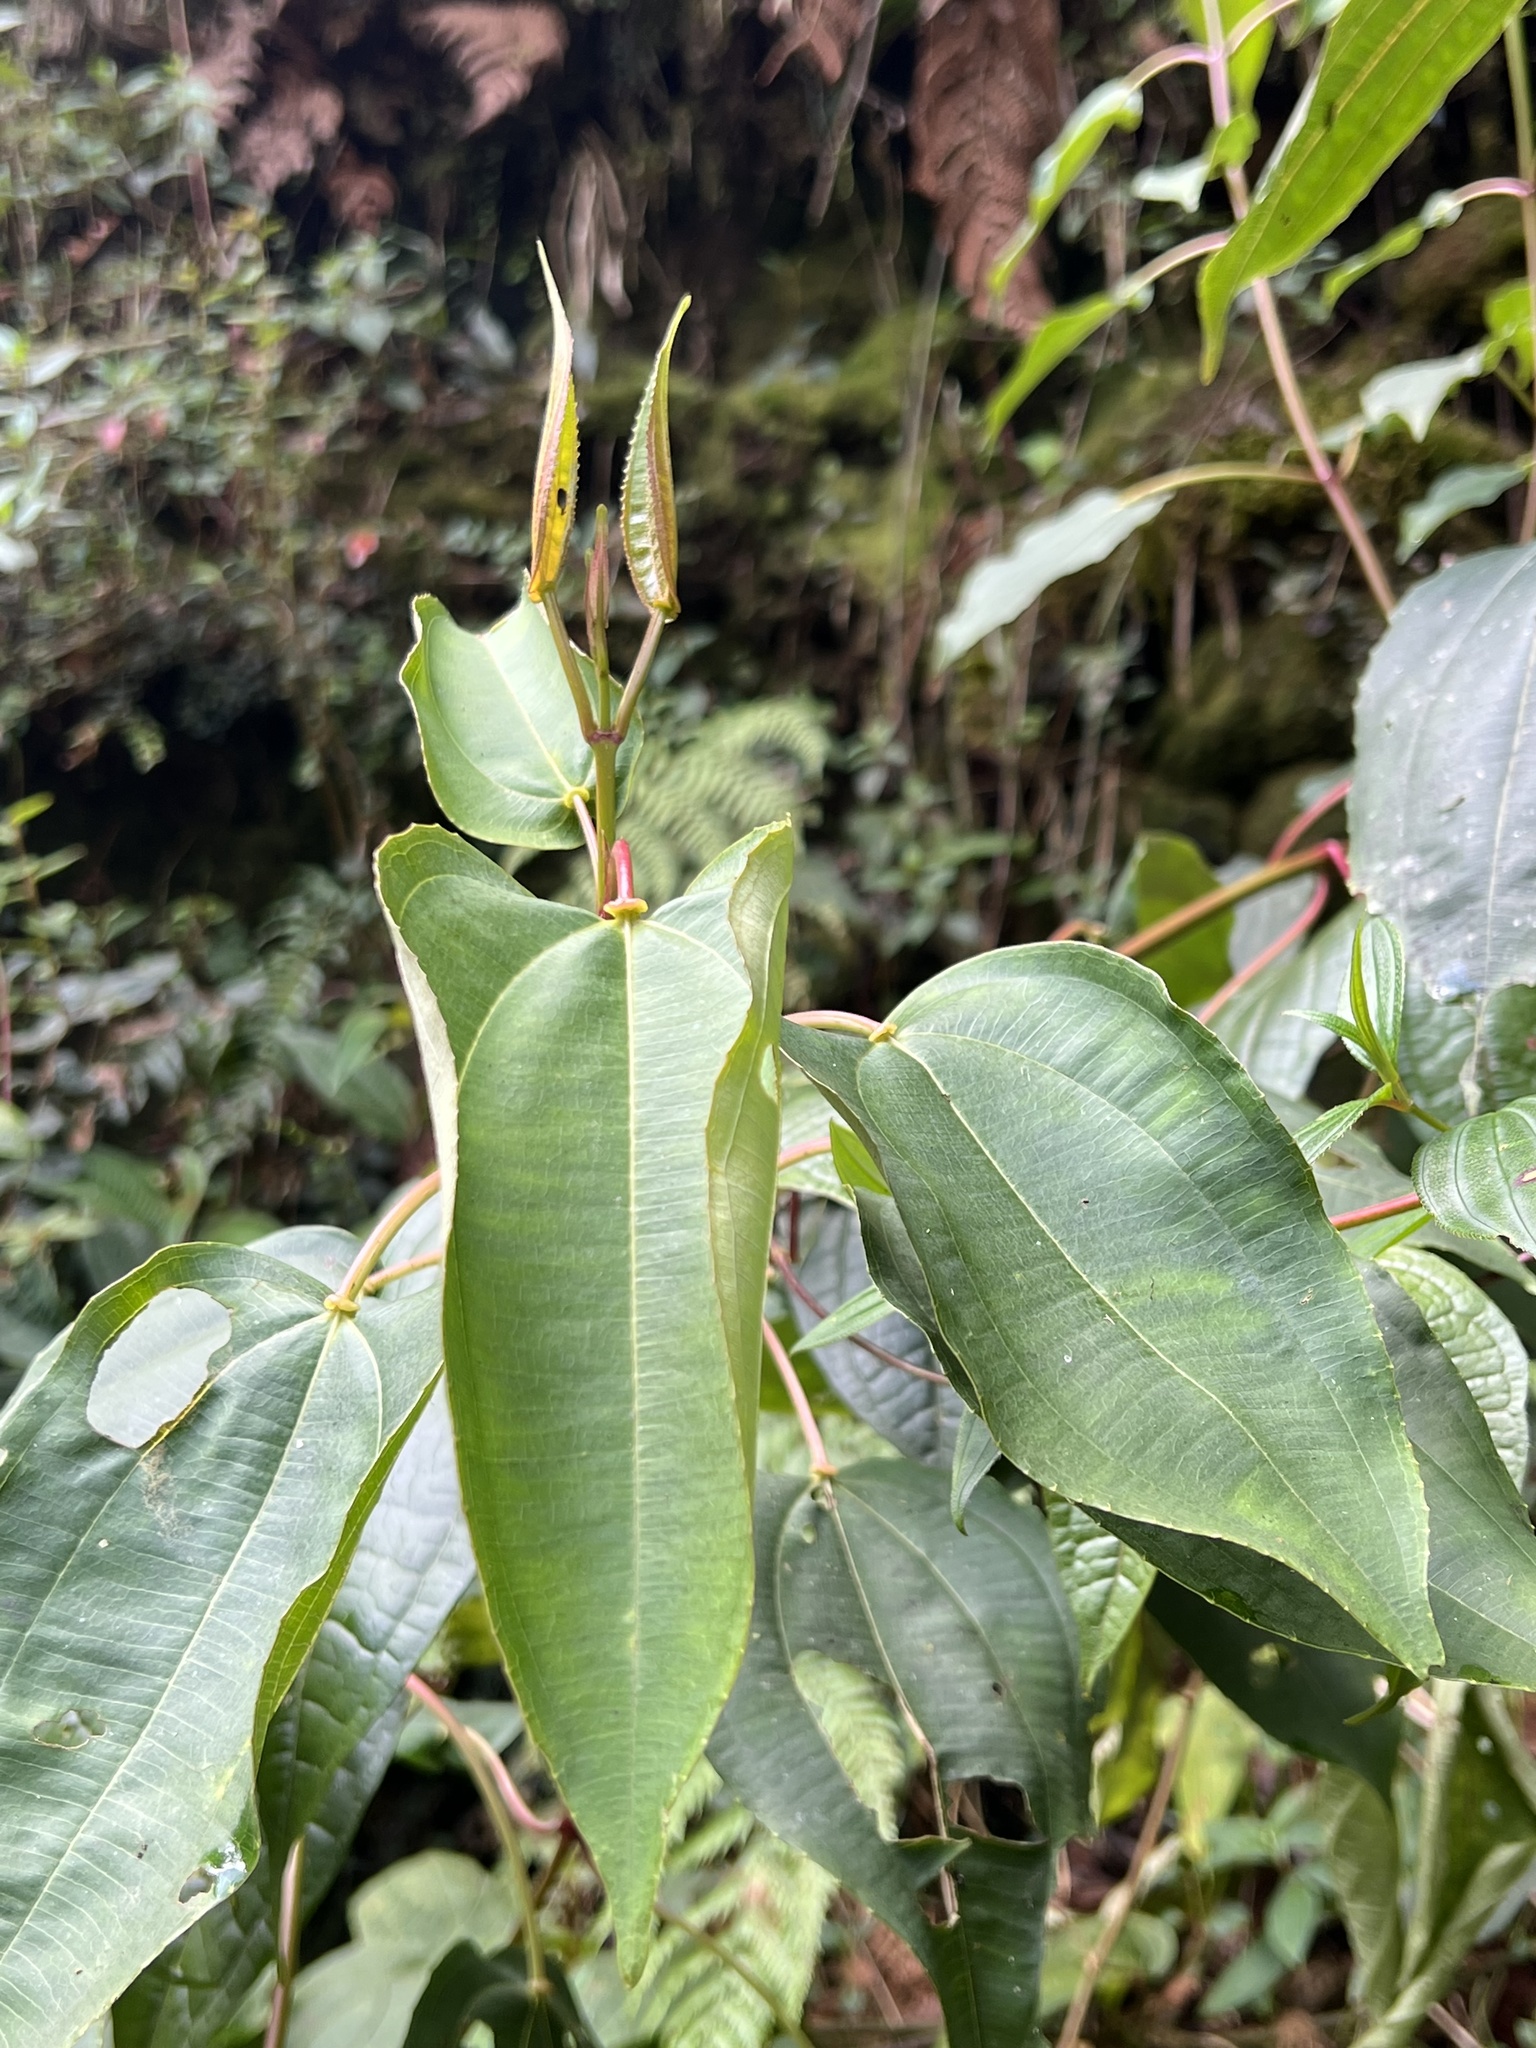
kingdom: Plantae
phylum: Tracheophyta
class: Magnoliopsida
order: Myrtales
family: Melastomataceae
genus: Axinaea
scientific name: Axinaea scutigera
